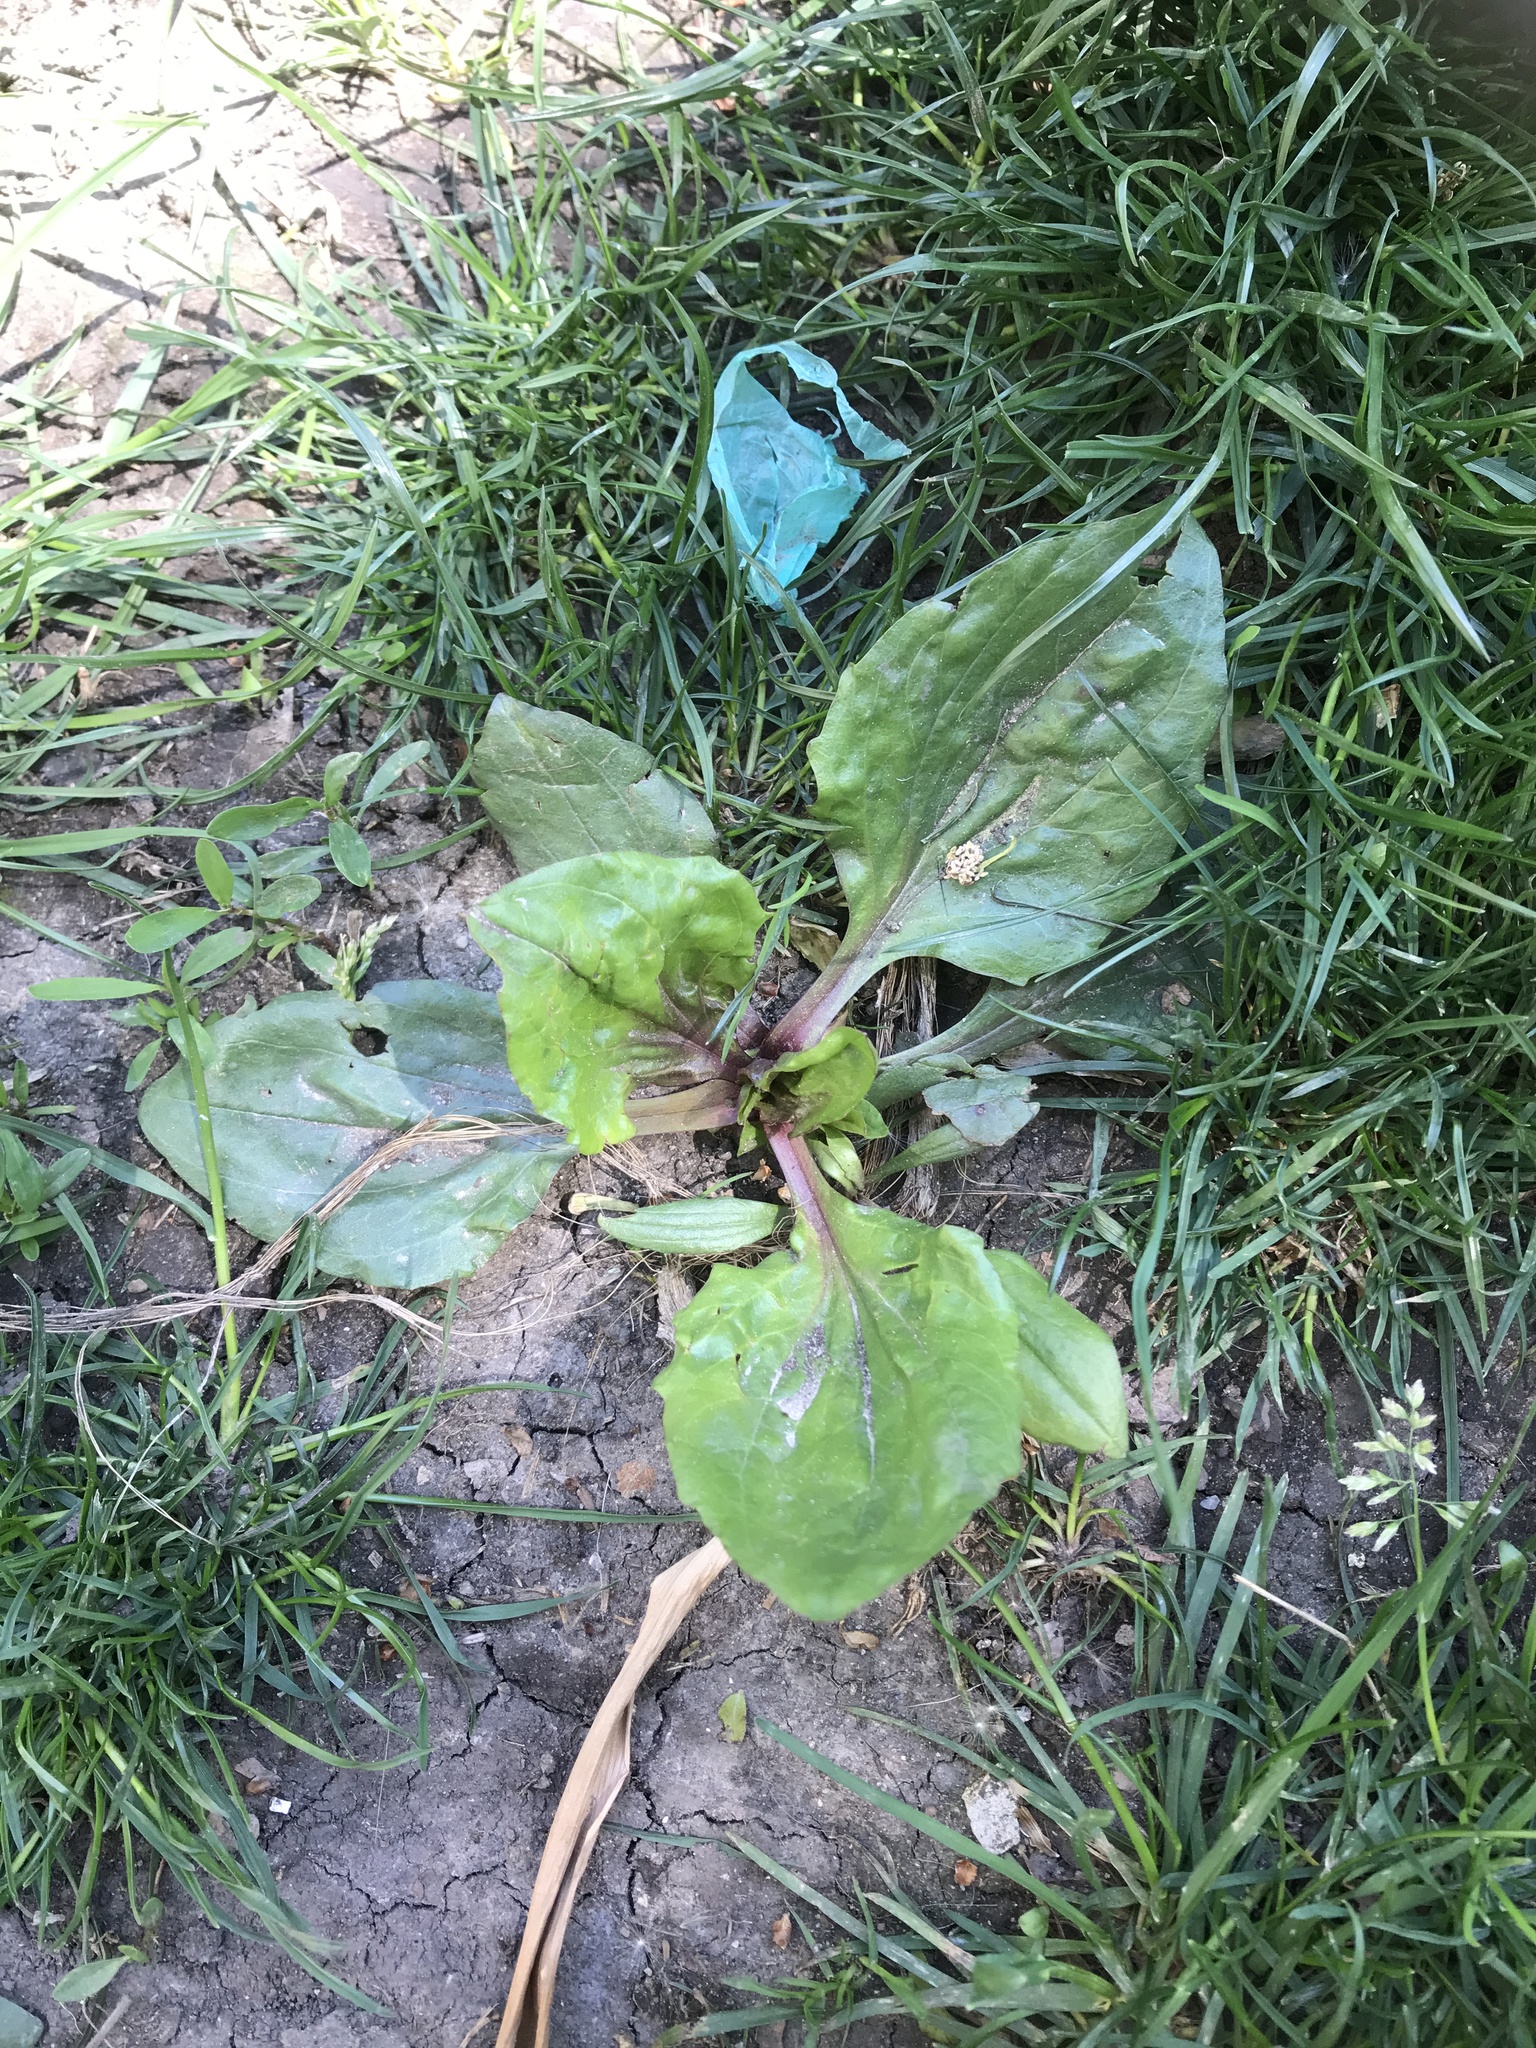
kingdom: Plantae
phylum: Tracheophyta
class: Magnoliopsida
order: Lamiales
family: Plantaginaceae
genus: Plantago
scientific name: Plantago rugelii
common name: American plantain
